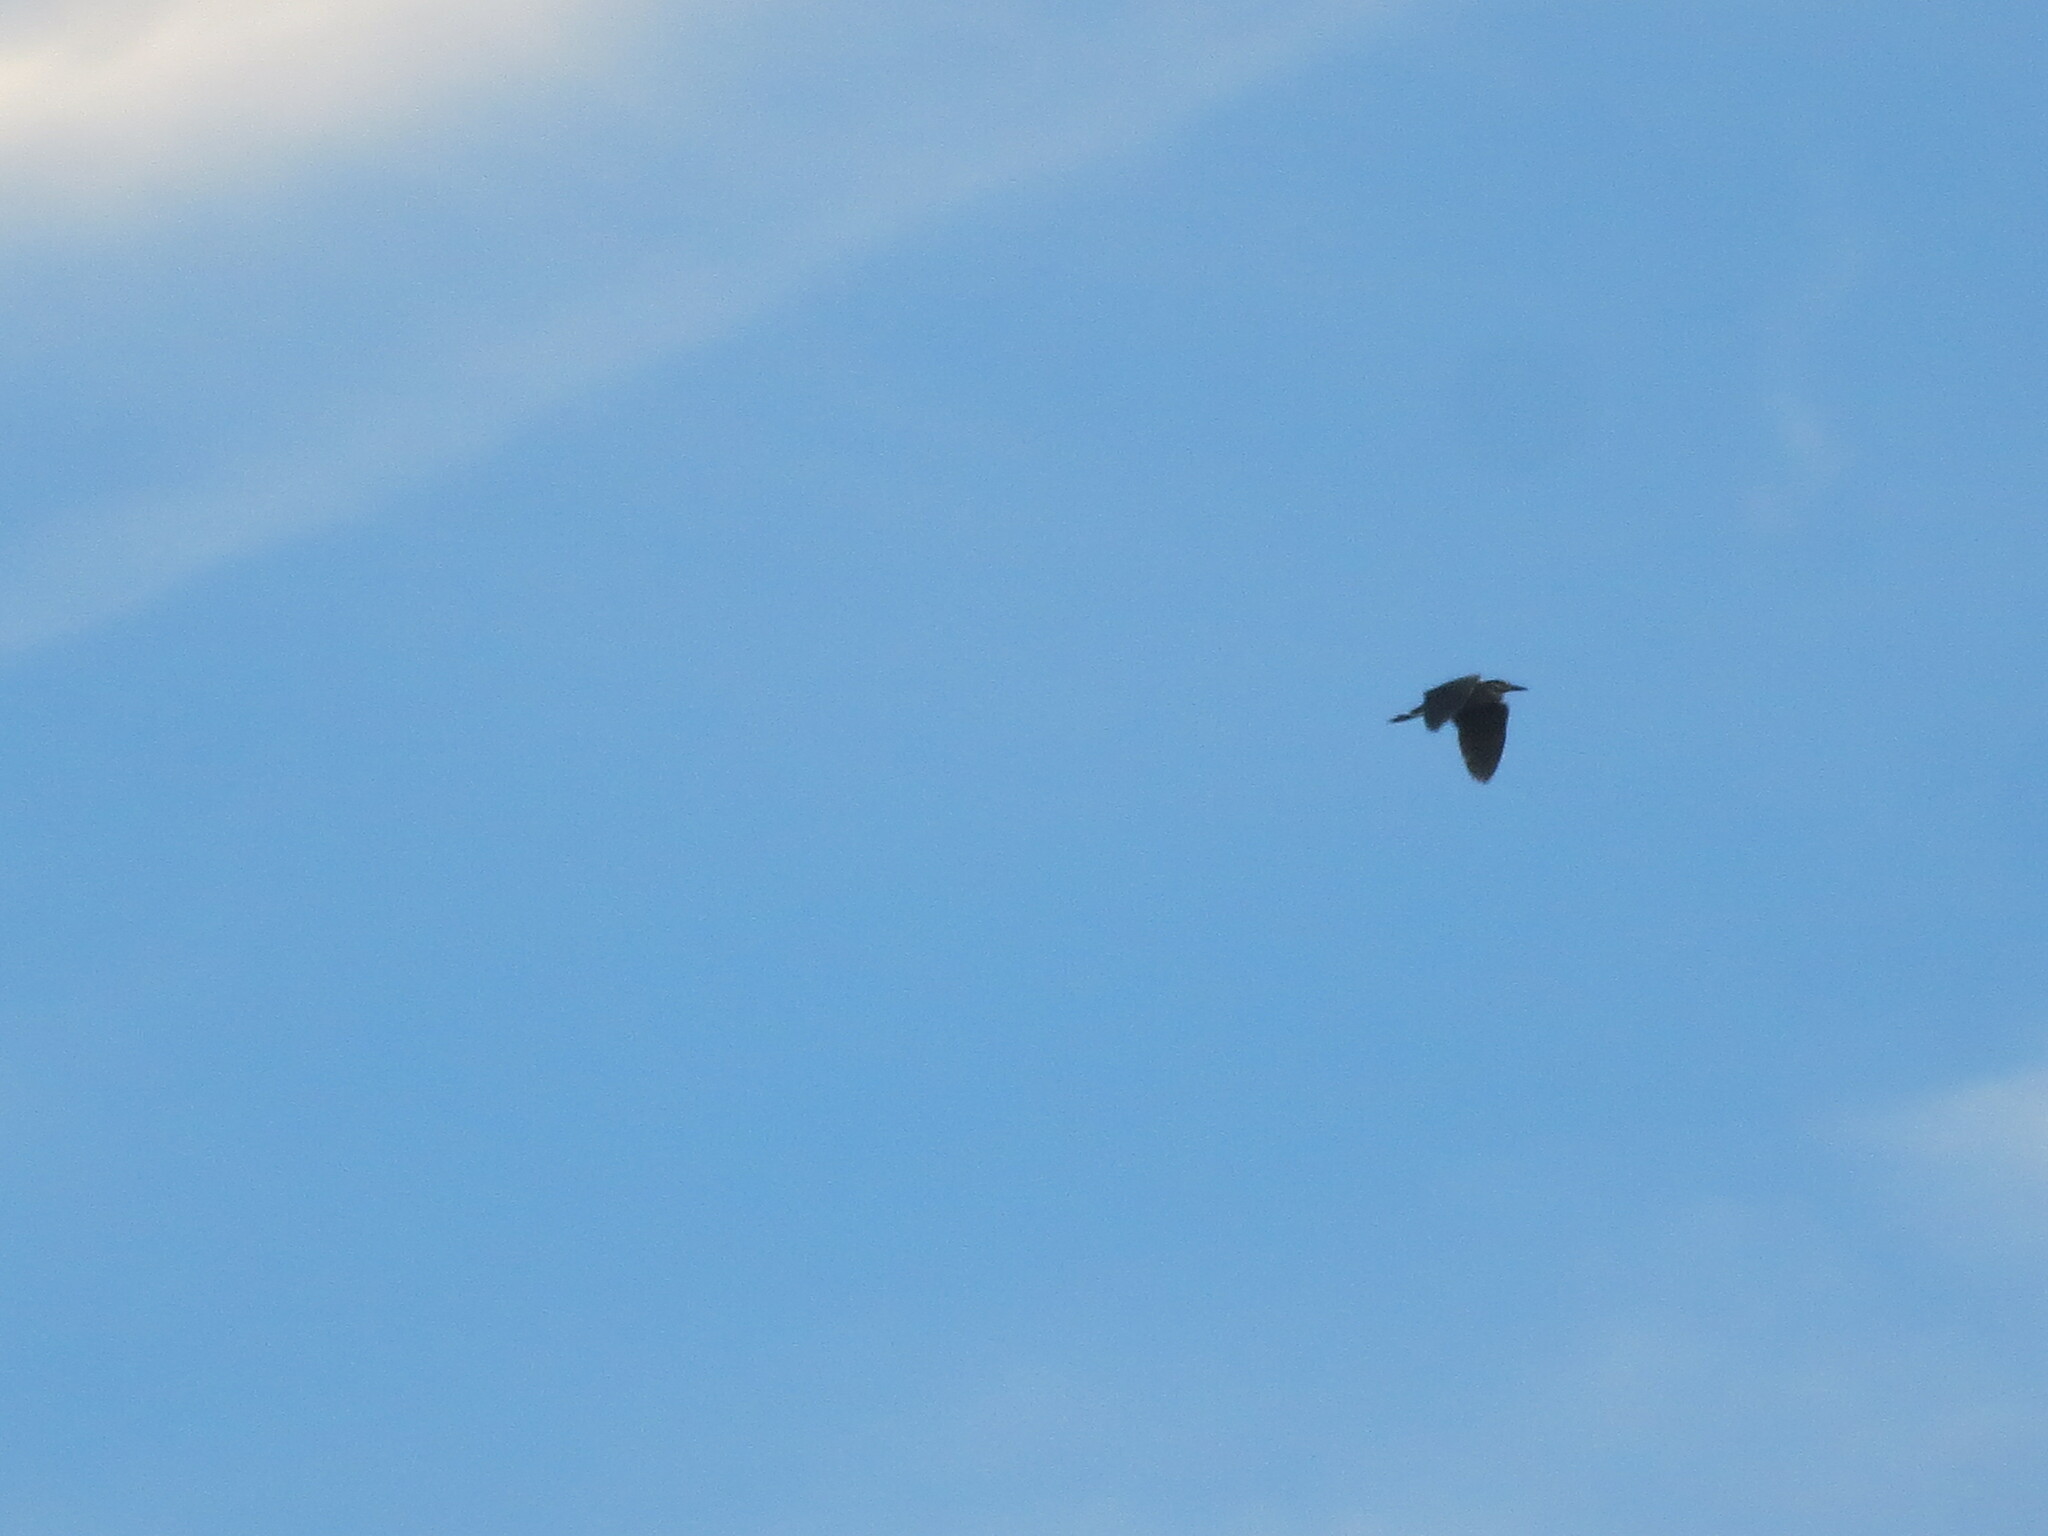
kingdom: Animalia
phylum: Chordata
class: Aves
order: Pelecaniformes
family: Ardeidae
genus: Nyctanassa
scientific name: Nyctanassa violacea
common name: Yellow-crowned night heron
